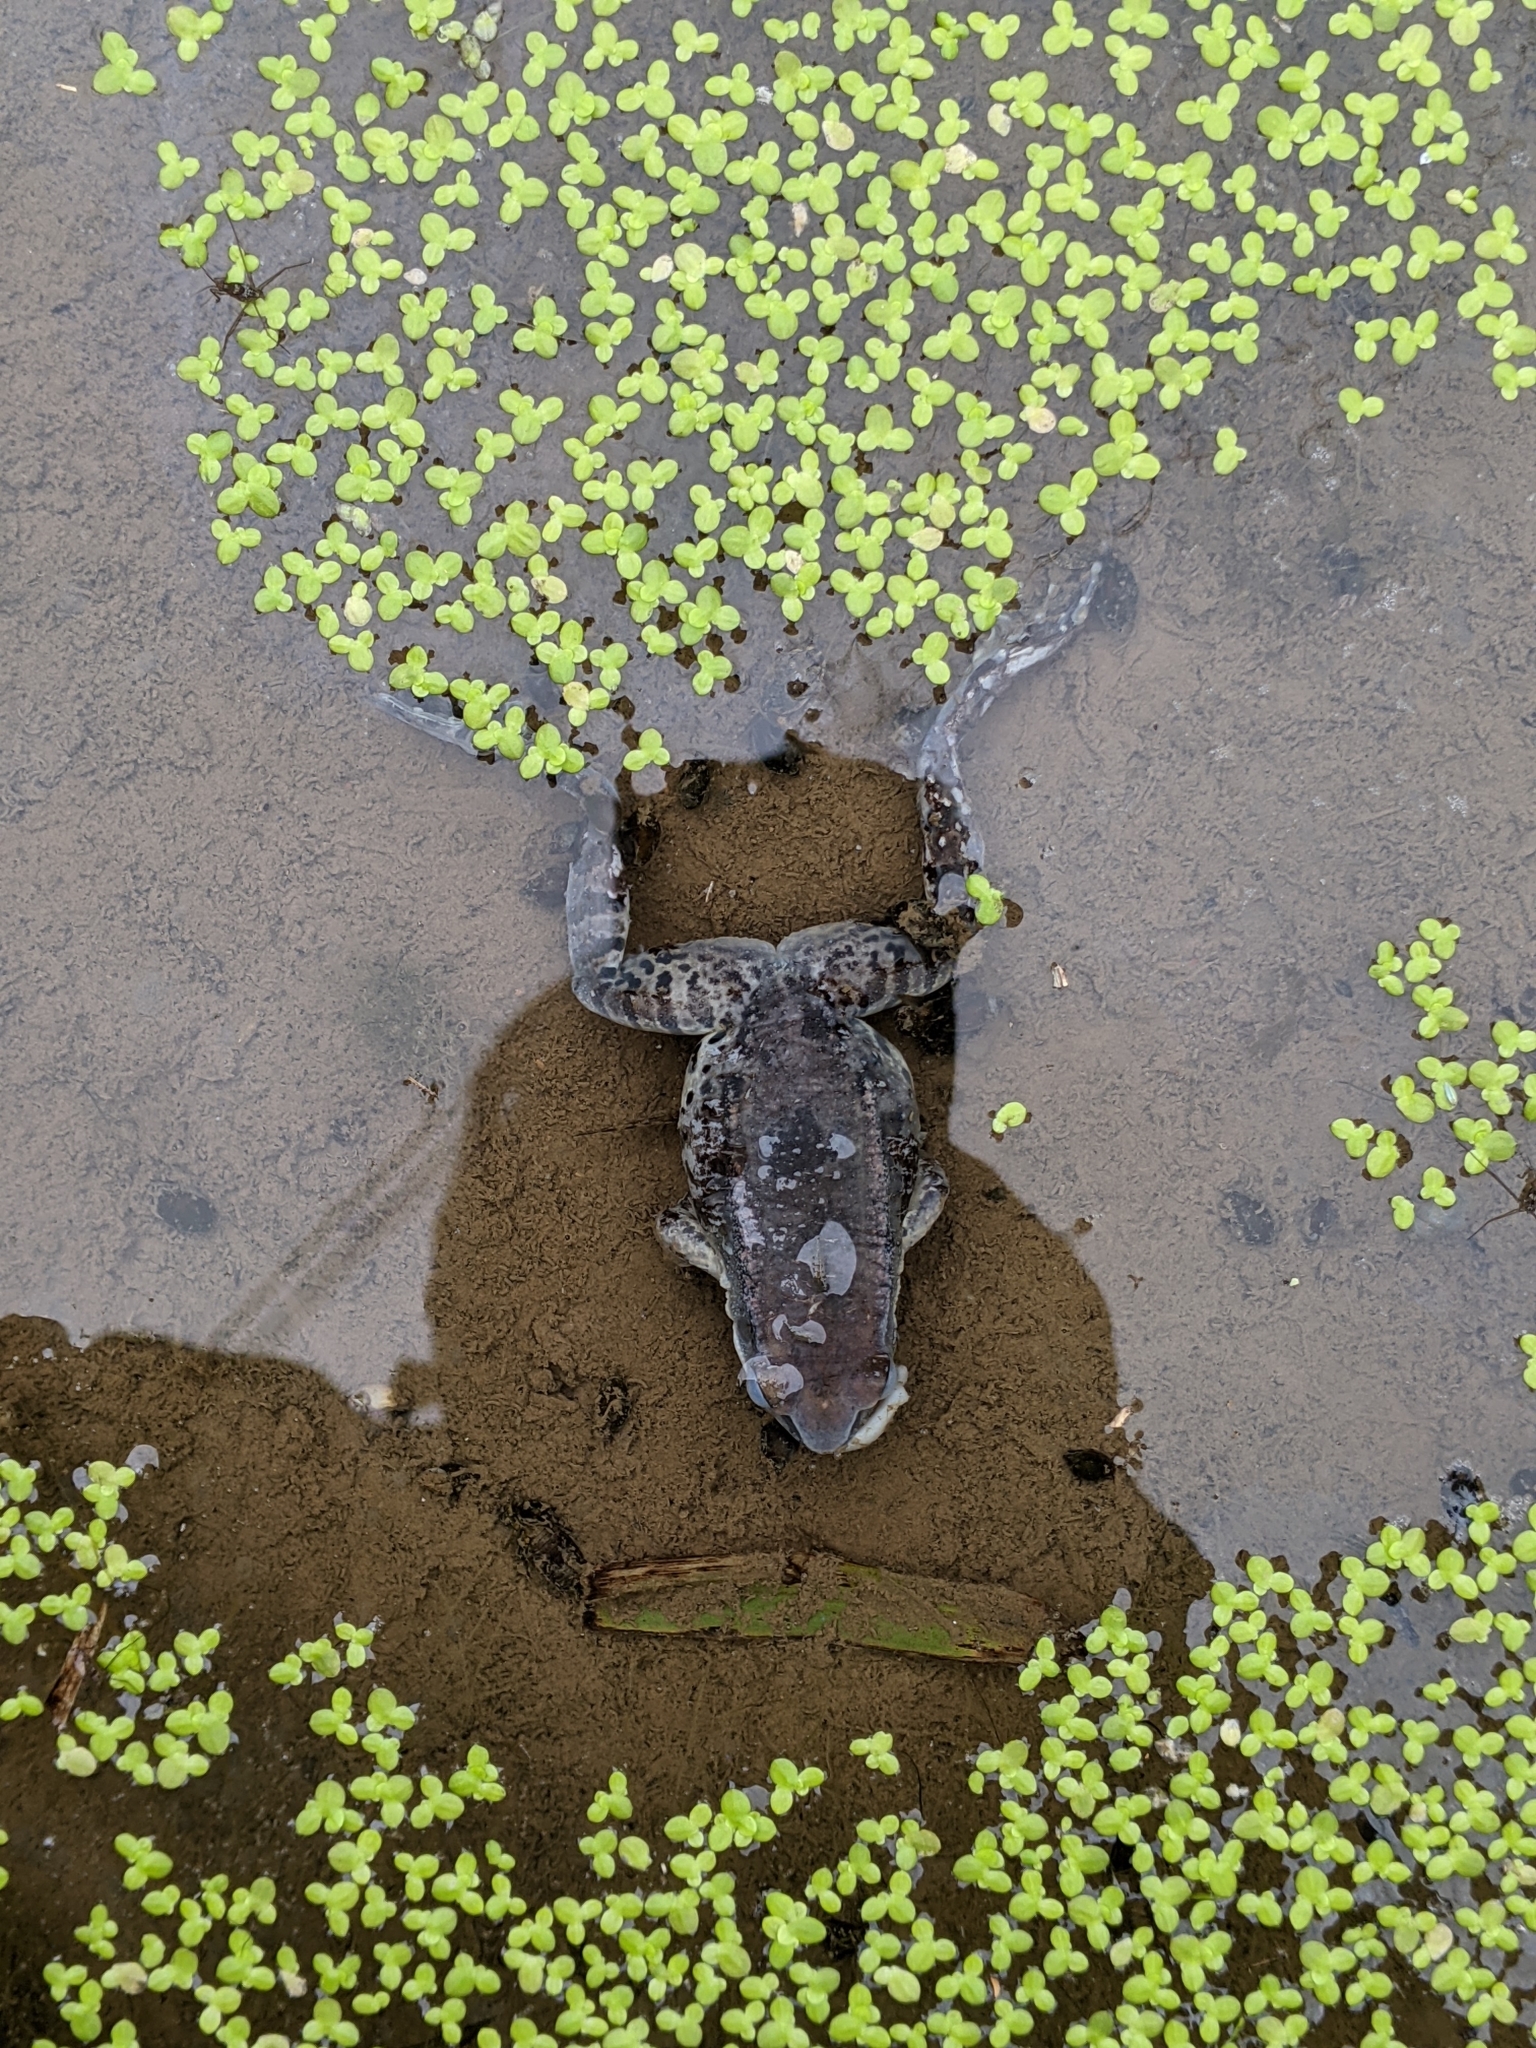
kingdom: Animalia
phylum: Chordata
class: Amphibia
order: Anura
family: Bufonidae
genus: Duttaphrynus
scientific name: Duttaphrynus melanostictus
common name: Common sunda toad
